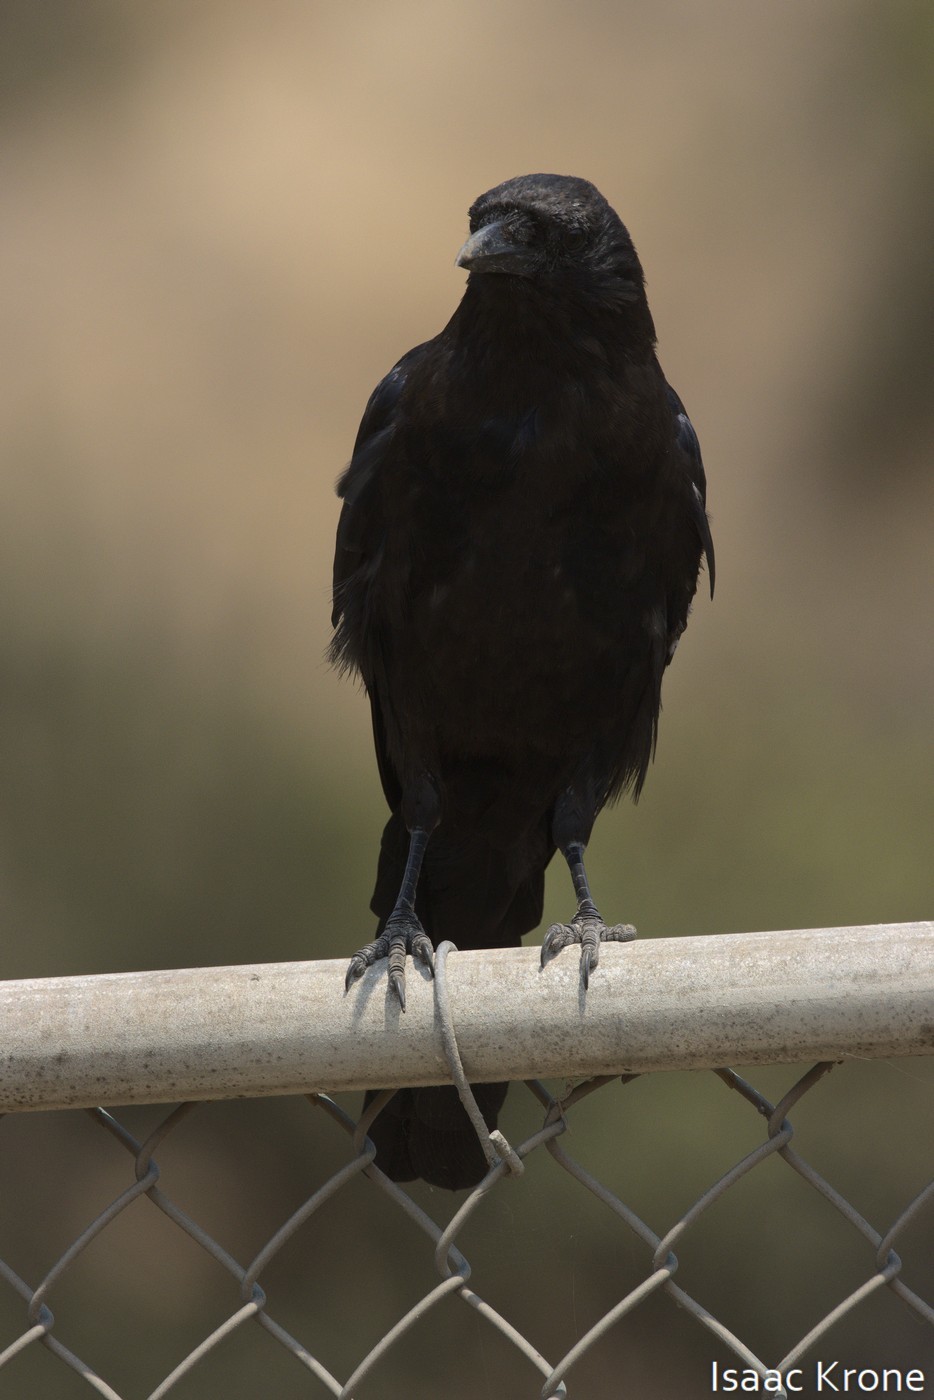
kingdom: Animalia
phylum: Chordata
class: Aves
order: Passeriformes
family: Corvidae
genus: Corvus
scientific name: Corvus brachyrhynchos
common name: American crow
